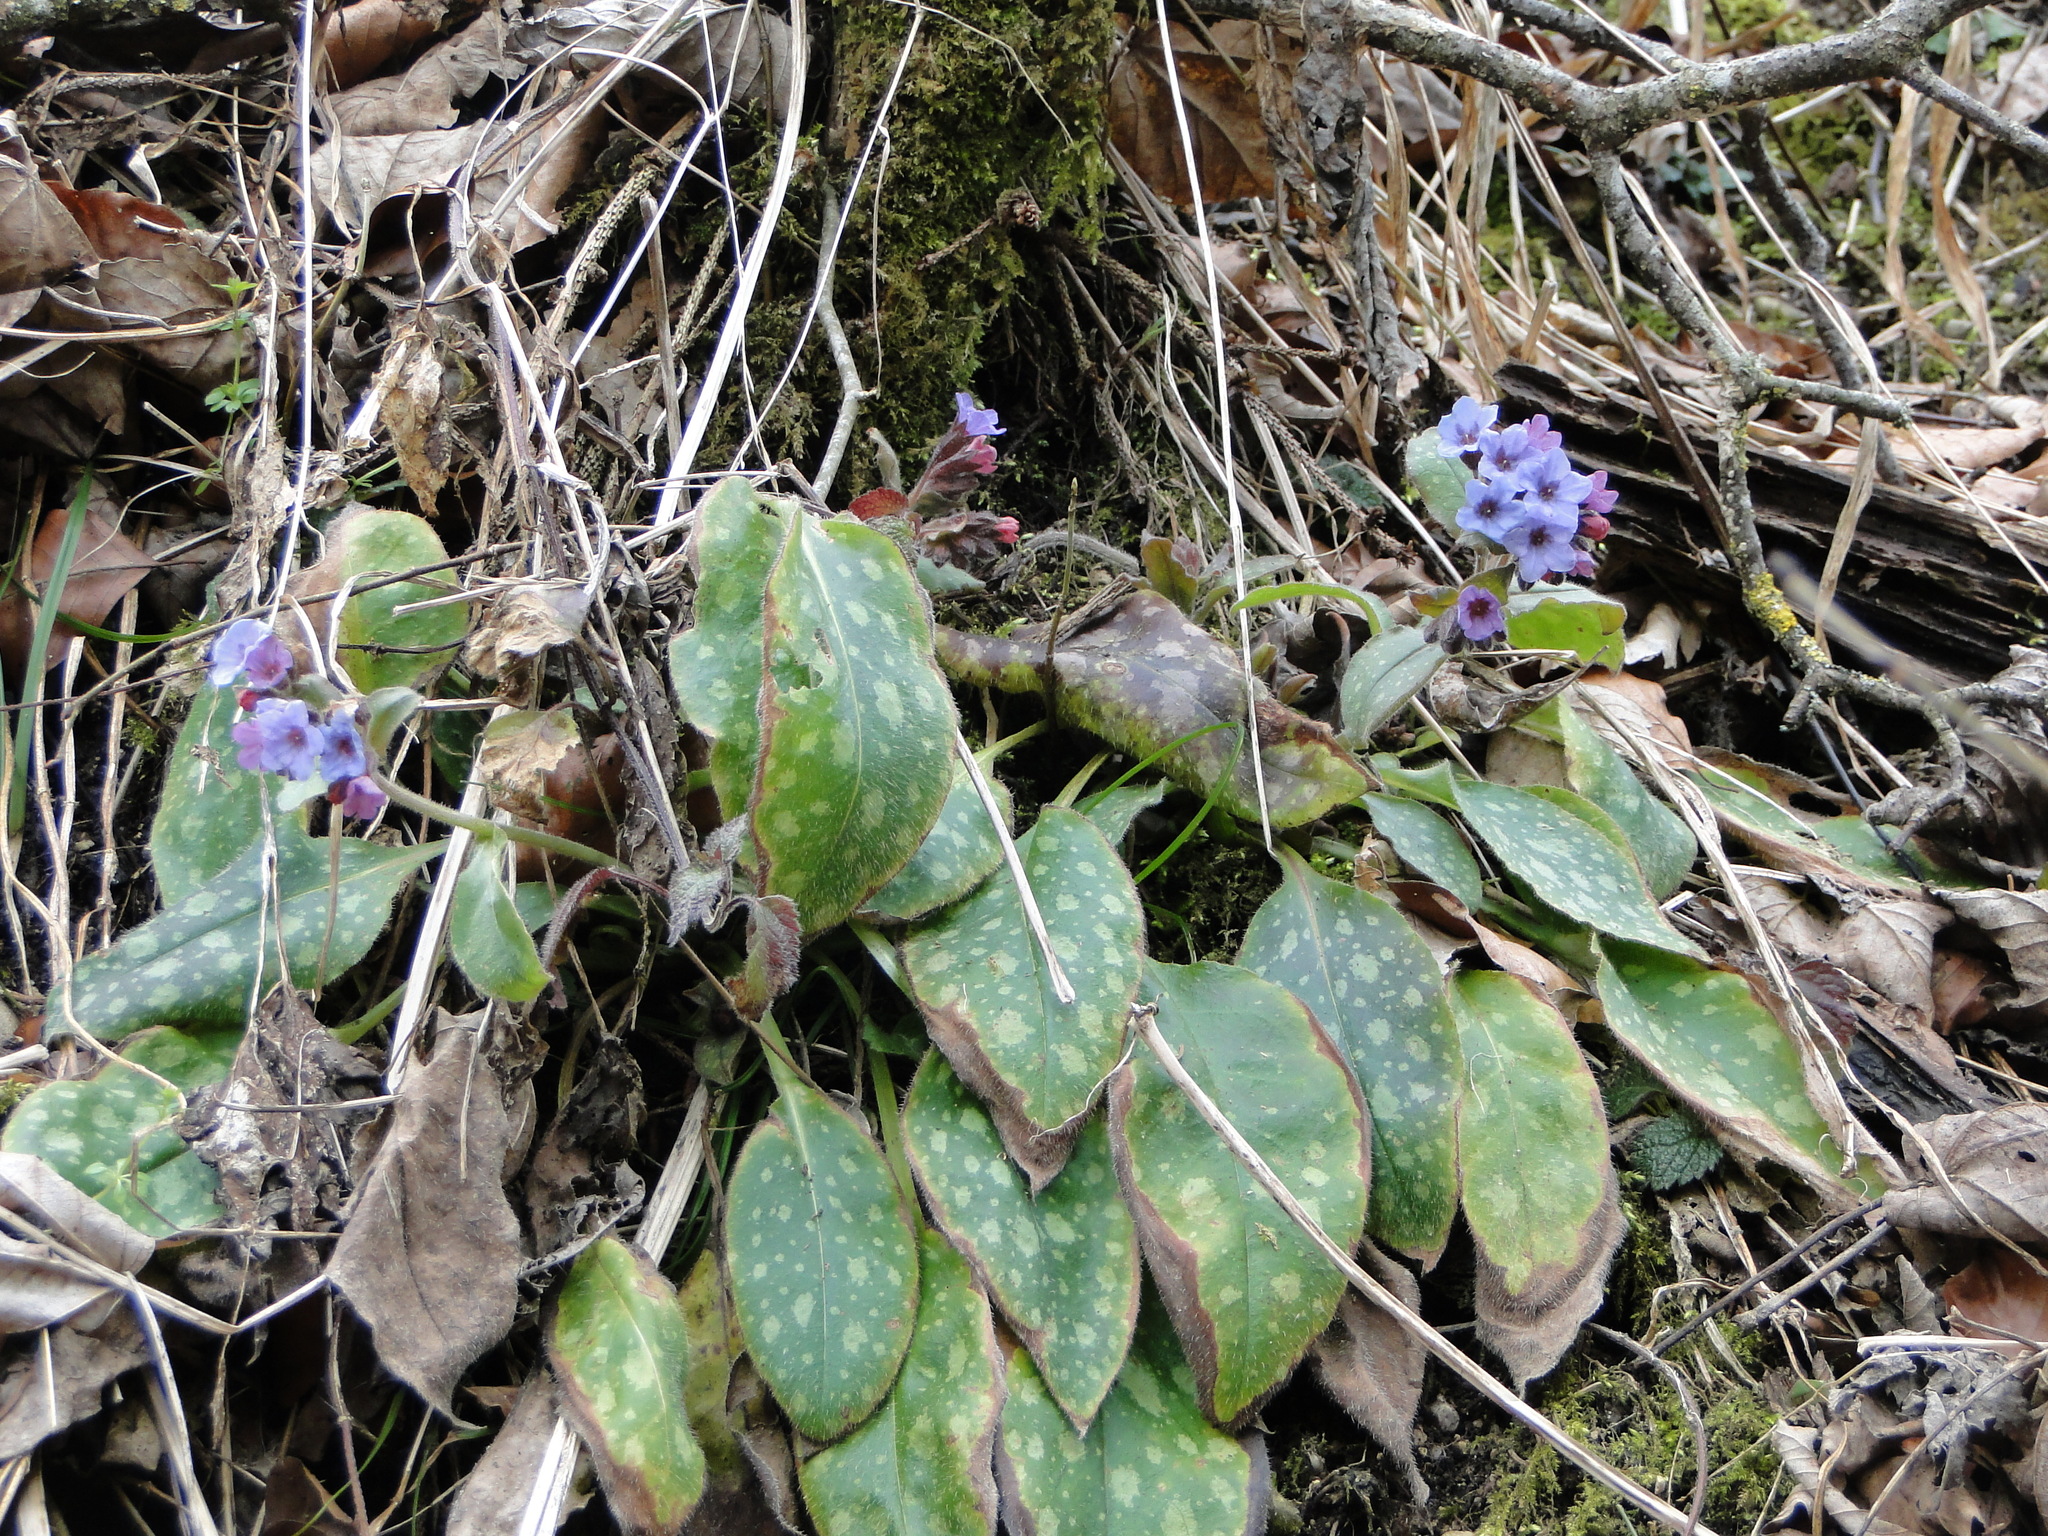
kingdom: Plantae
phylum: Tracheophyta
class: Magnoliopsida
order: Boraginales
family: Boraginaceae
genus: Pulmonaria
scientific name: Pulmonaria officinalis
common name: Lungwort
